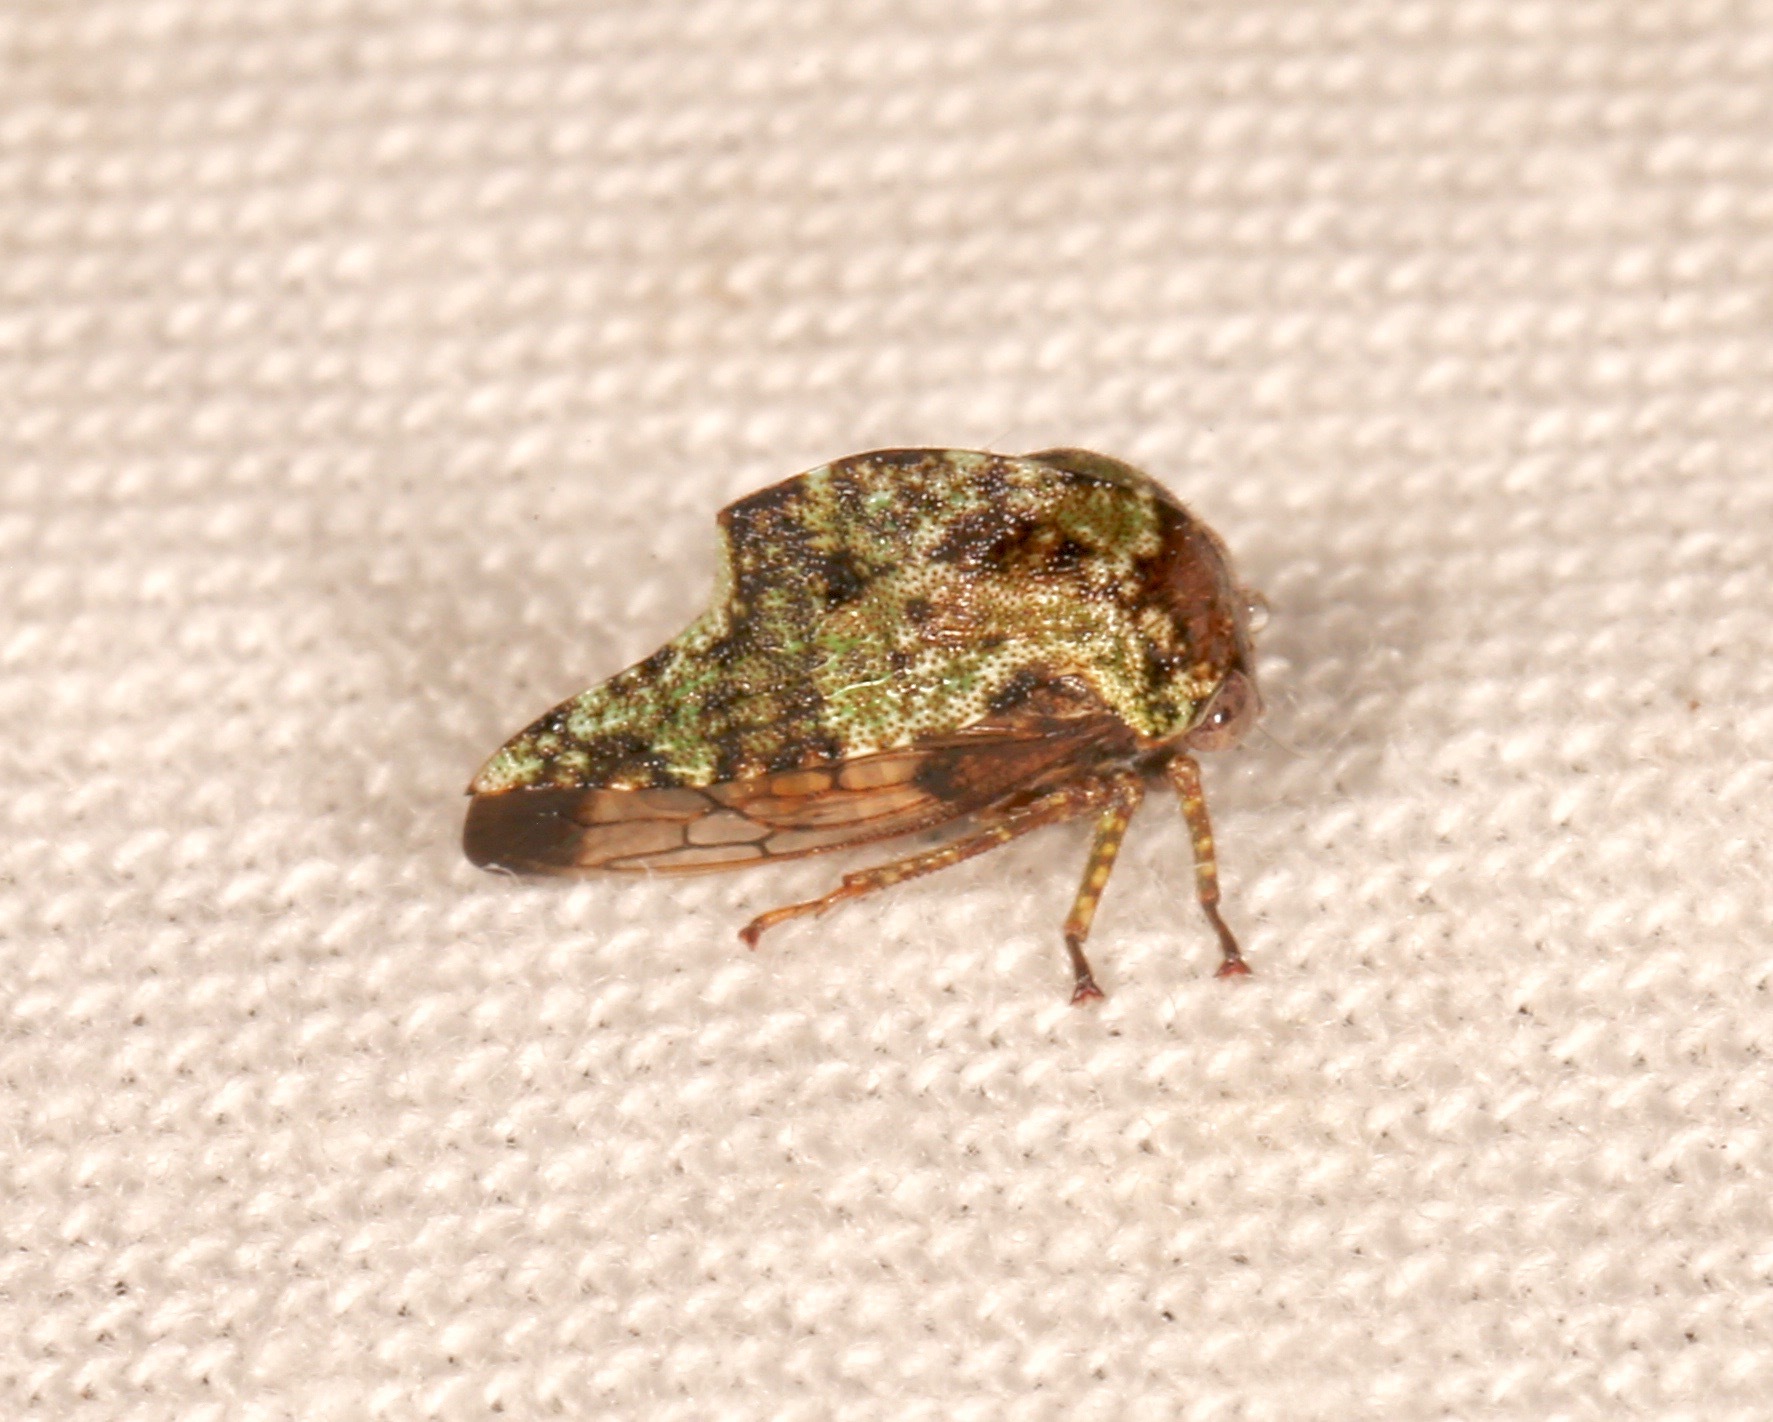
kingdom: Animalia
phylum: Arthropoda
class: Insecta
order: Hemiptera
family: Membracidae
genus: Telamona
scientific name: Telamona
